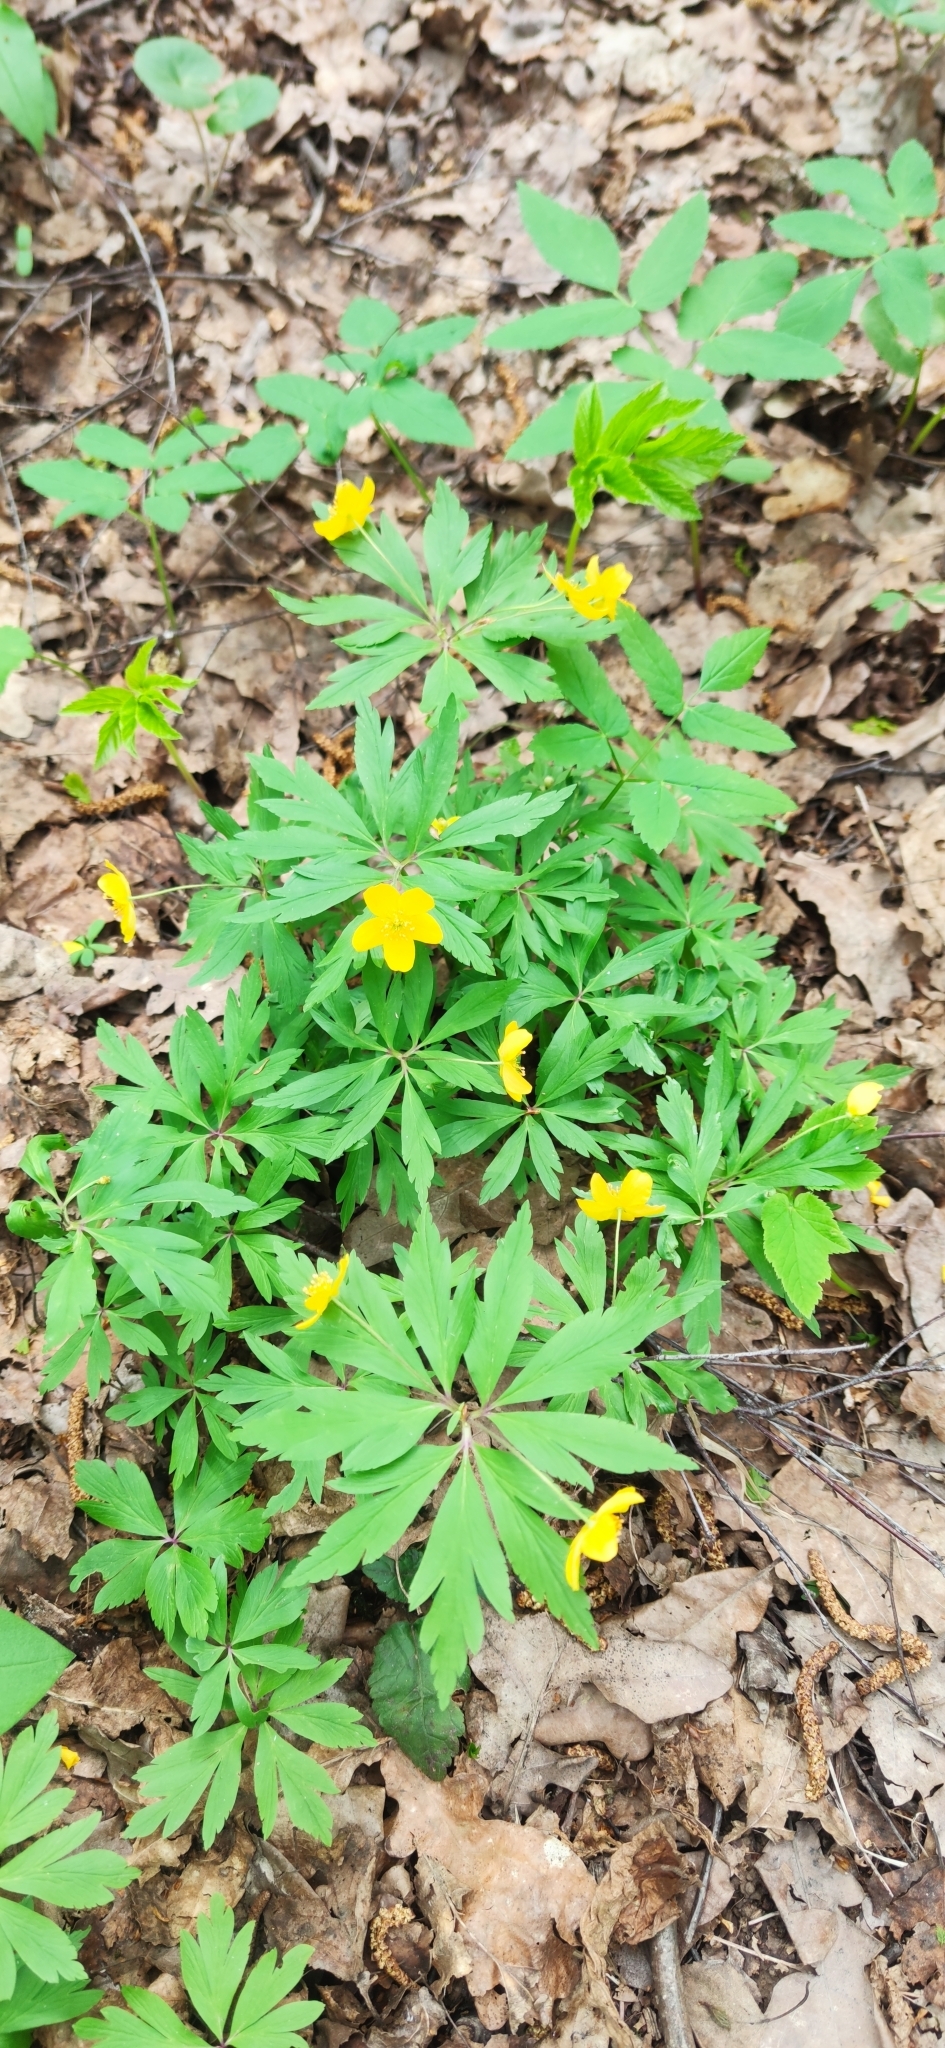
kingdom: Plantae
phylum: Tracheophyta
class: Magnoliopsida
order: Ranunculales
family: Ranunculaceae
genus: Anemone
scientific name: Anemone ranunculoides
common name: Yellow anemone
